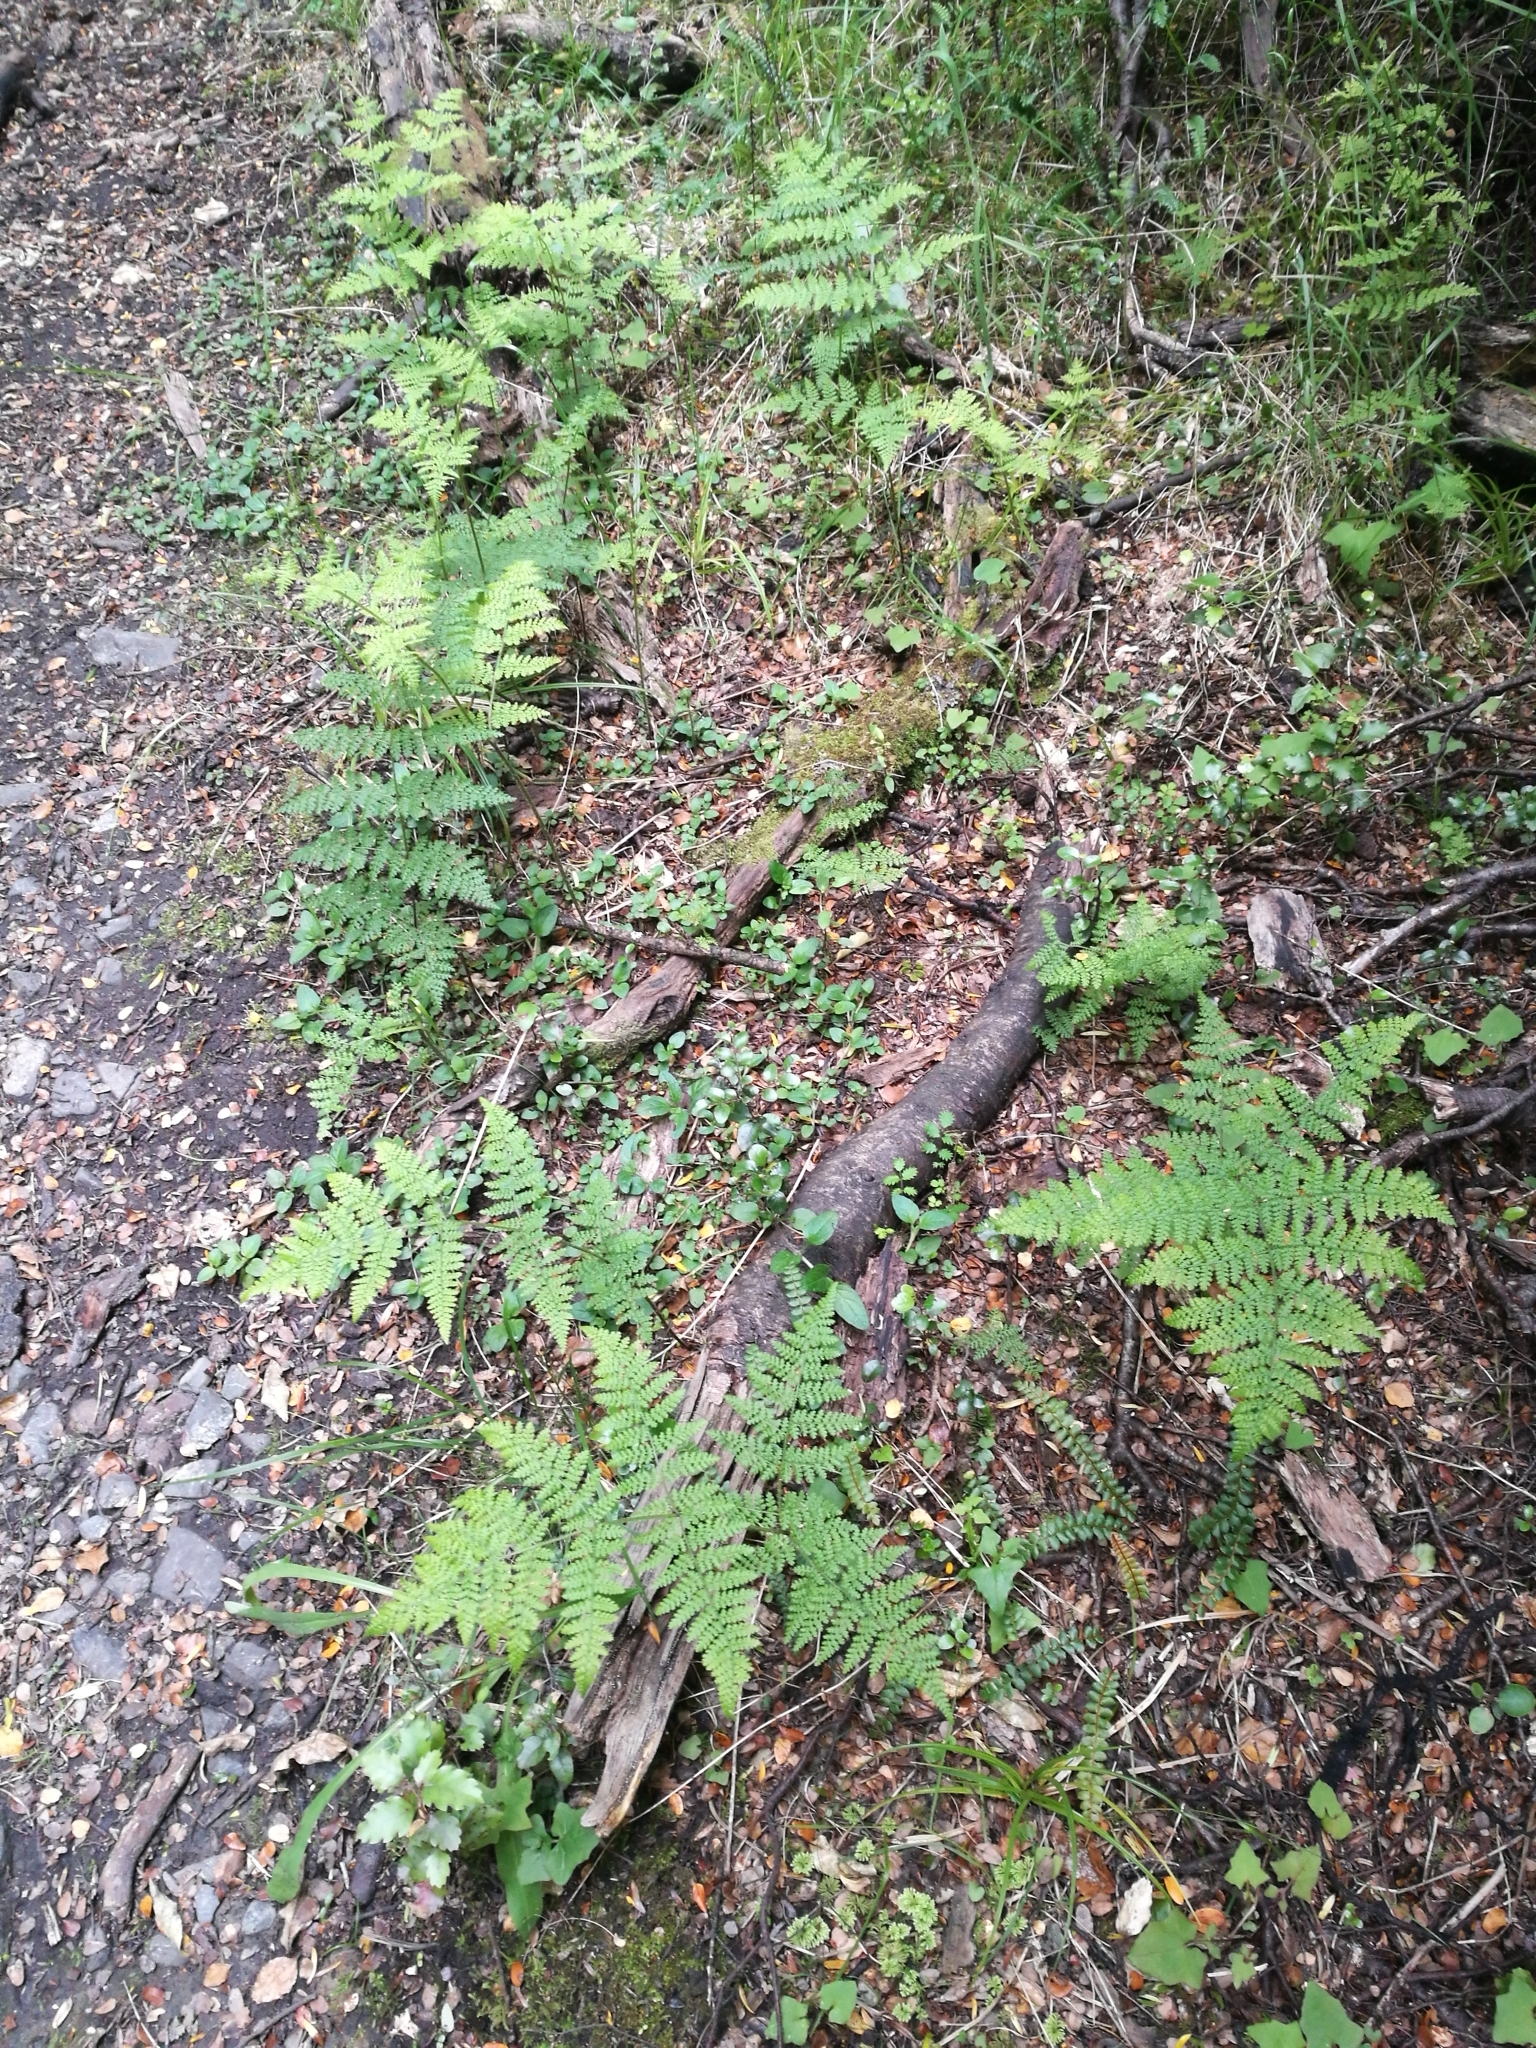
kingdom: Plantae
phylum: Tracheophyta
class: Polypodiopsida
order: Polypodiales
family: Dennstaedtiaceae
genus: Hypolepis
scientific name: Hypolepis millefolium
